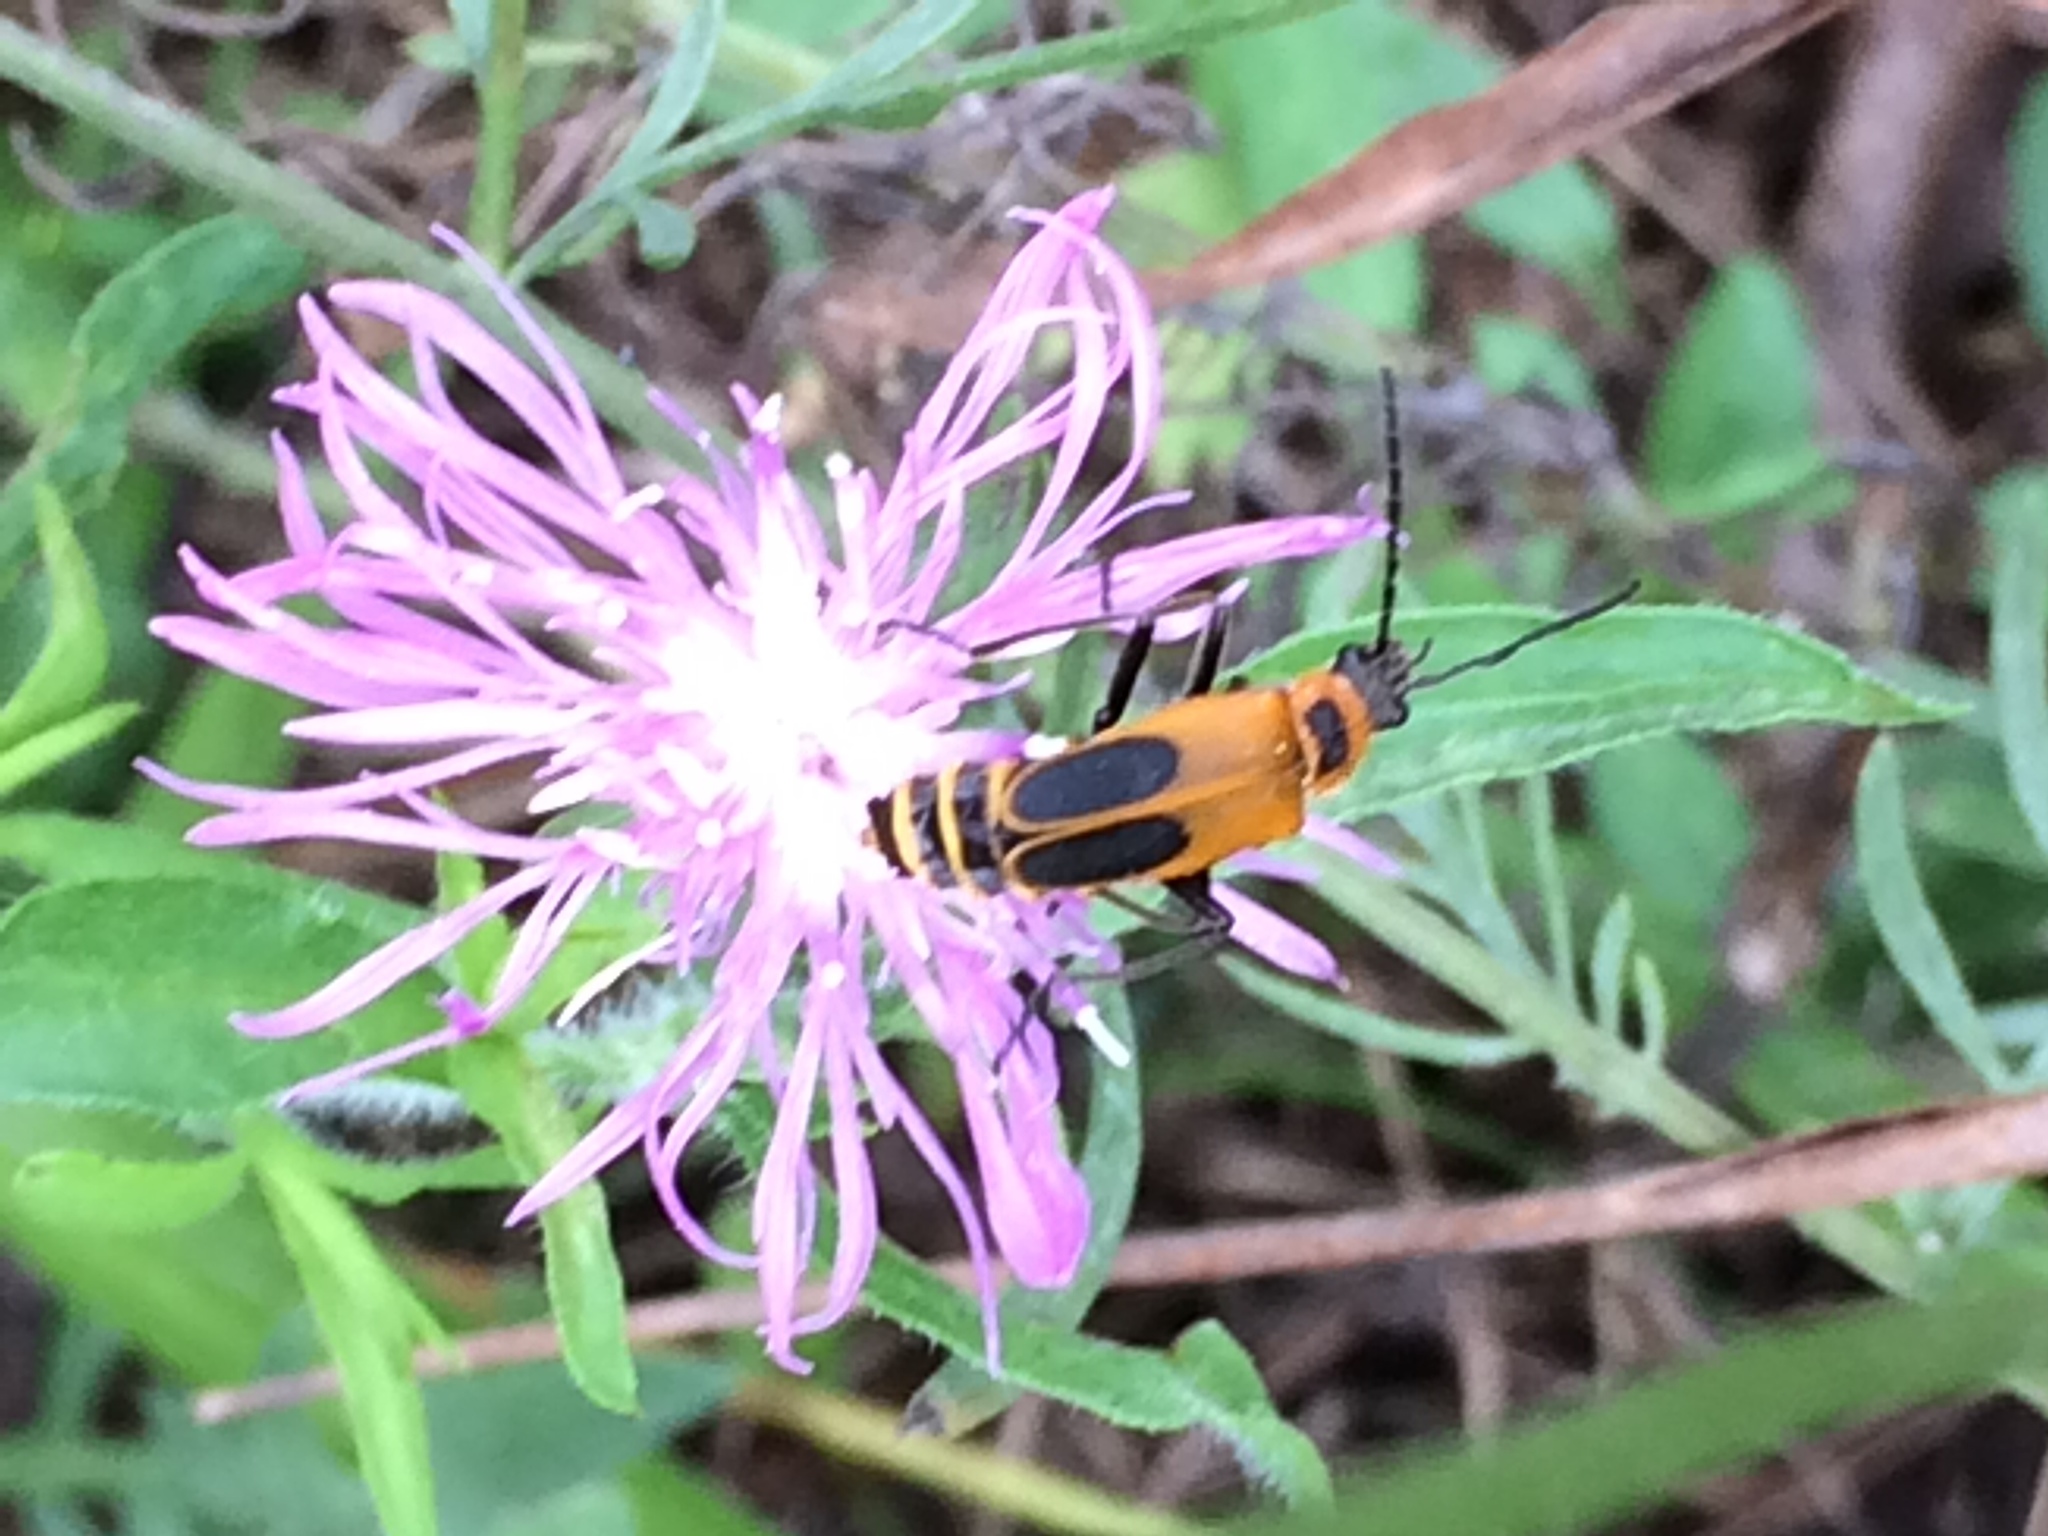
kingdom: Animalia
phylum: Arthropoda
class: Insecta
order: Coleoptera
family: Cantharidae
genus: Chauliognathus
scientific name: Chauliognathus pensylvanicus
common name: Goldenrod soldier beetle
